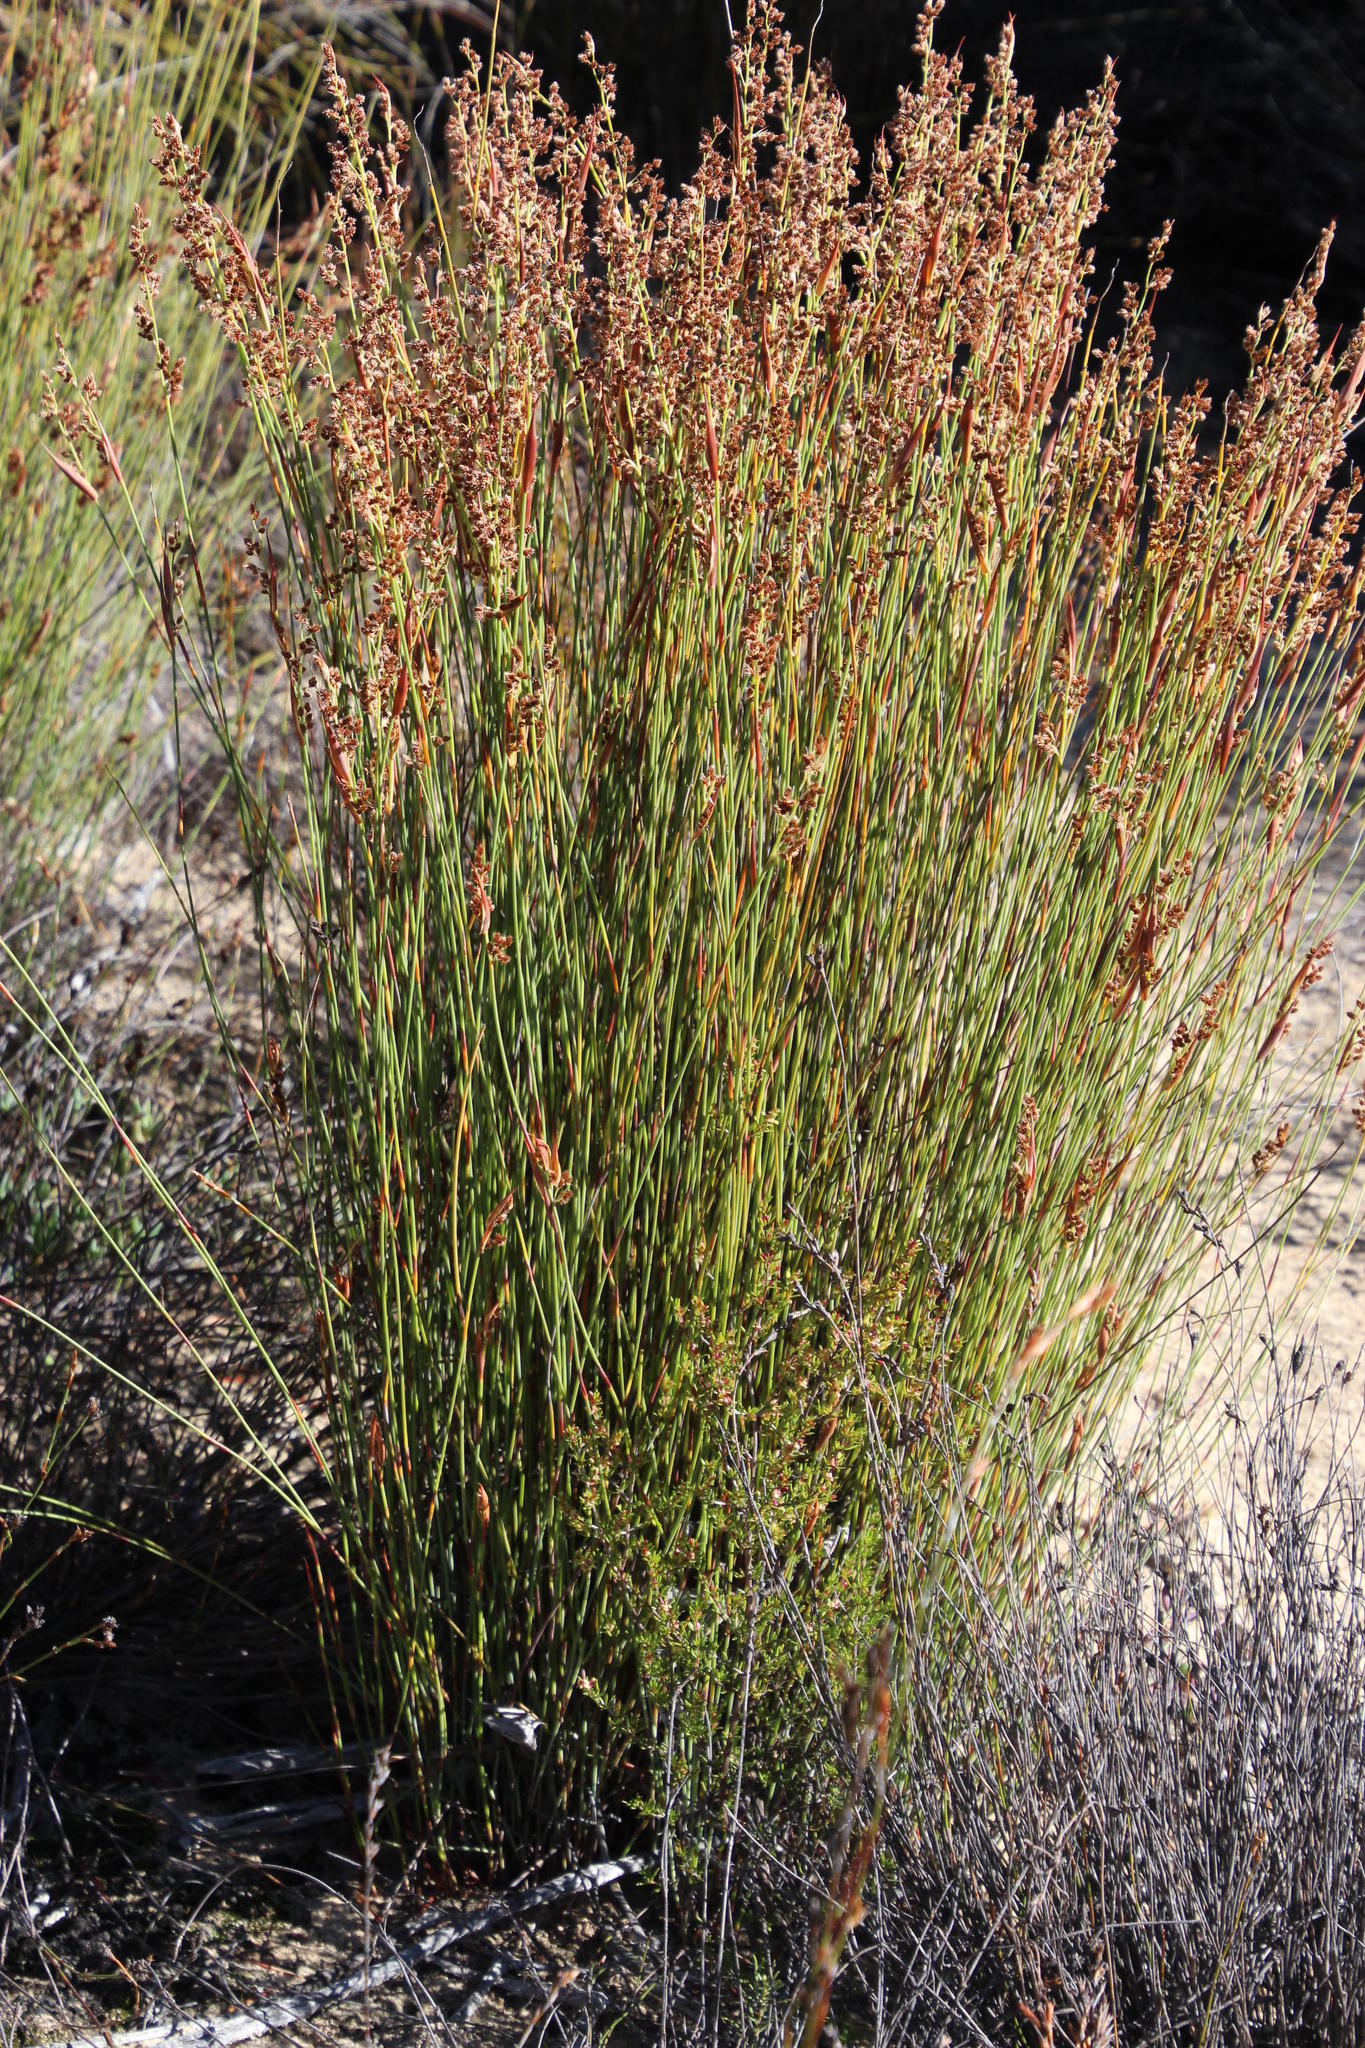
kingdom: Plantae
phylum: Tracheophyta
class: Liliopsida
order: Poales
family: Restionaceae
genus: Cannomois
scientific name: Cannomois parviflora
